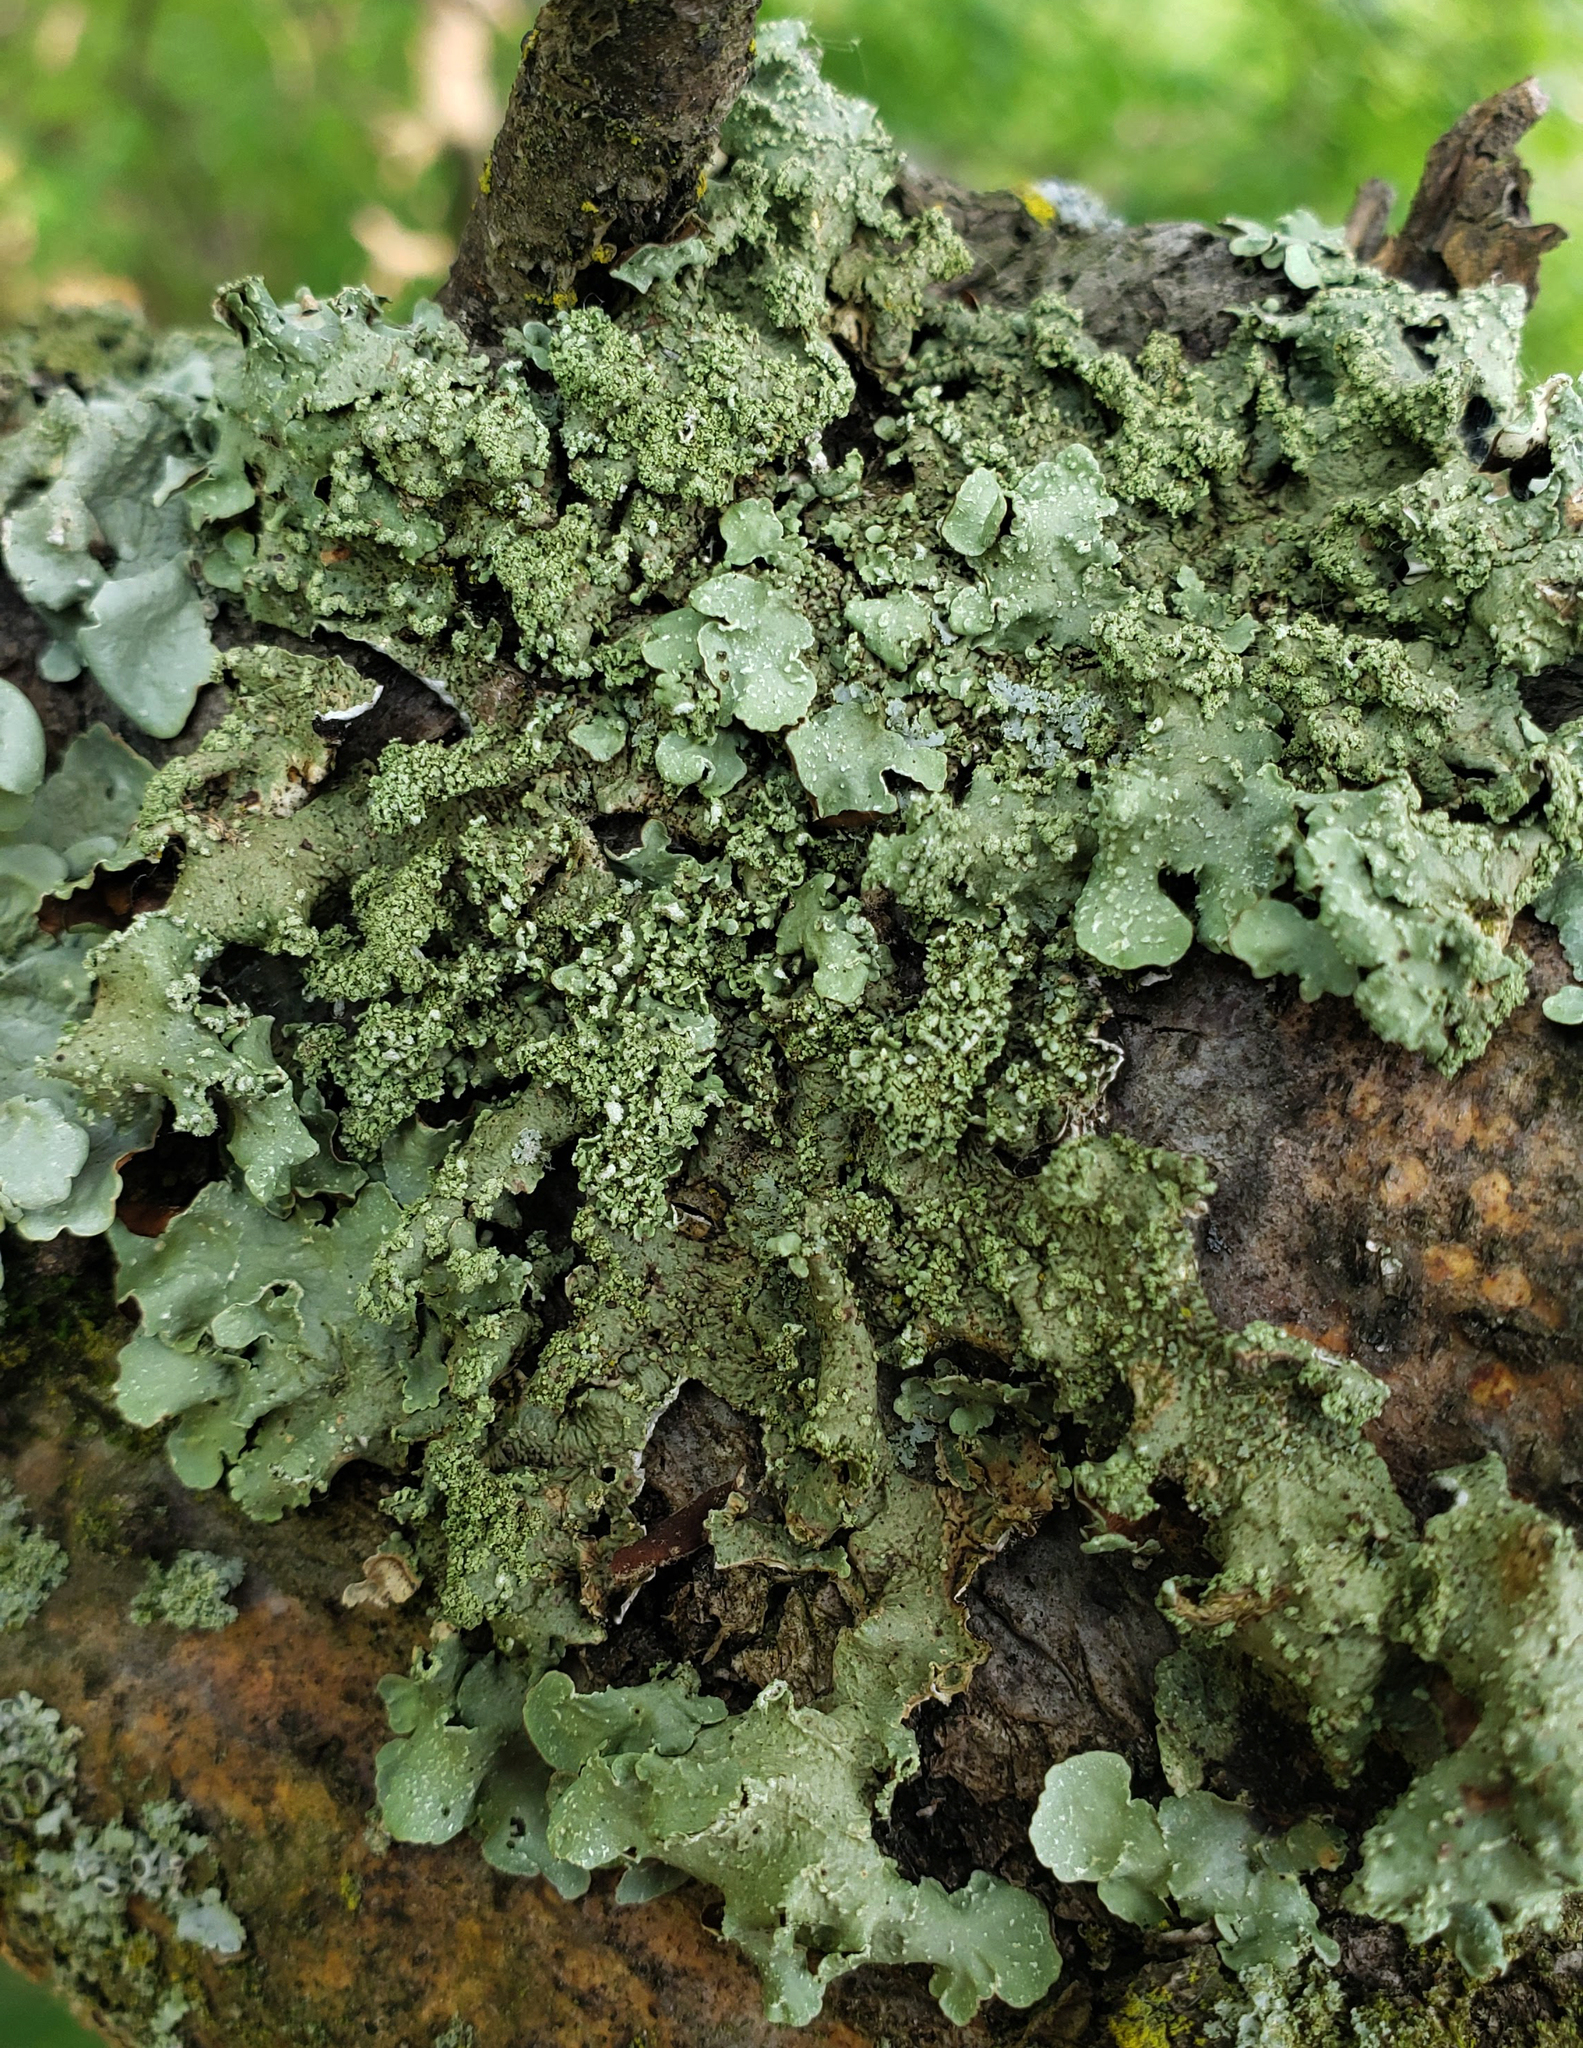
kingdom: Fungi
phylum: Ascomycota
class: Lecanoromycetes
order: Lecanorales
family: Parmeliaceae
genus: Flavopunctelia
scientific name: Flavopunctelia flaventior
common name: Speckled greenshield
